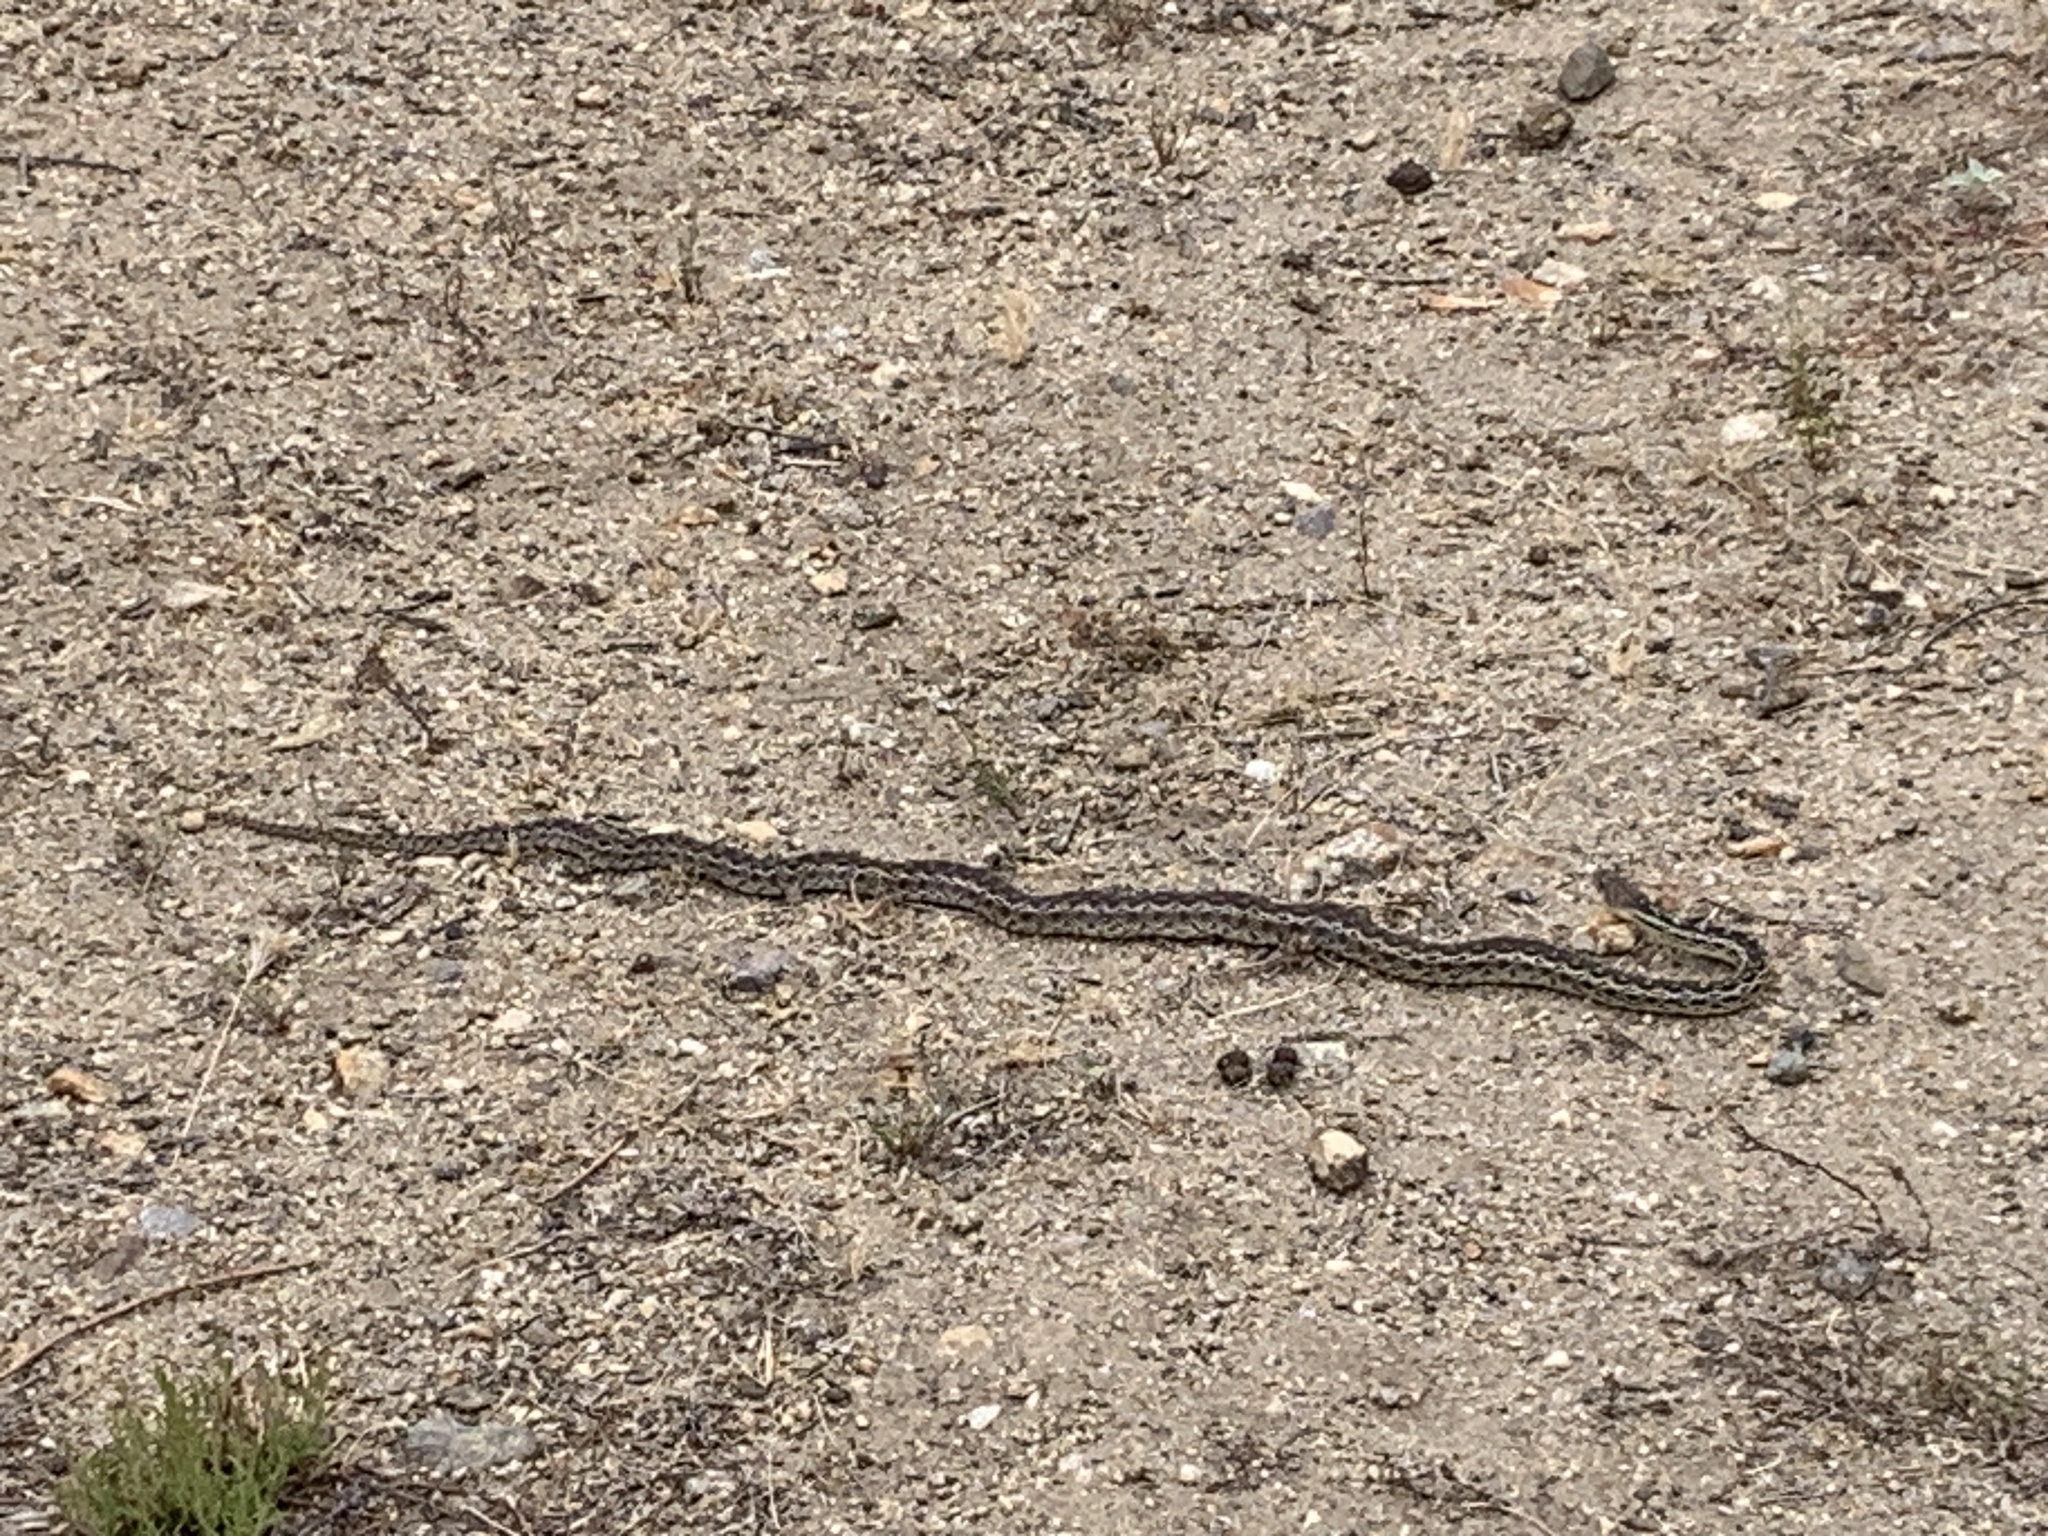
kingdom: Animalia
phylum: Chordata
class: Squamata
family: Colubridae
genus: Pituophis
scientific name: Pituophis catenifer
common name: Gopher snake
